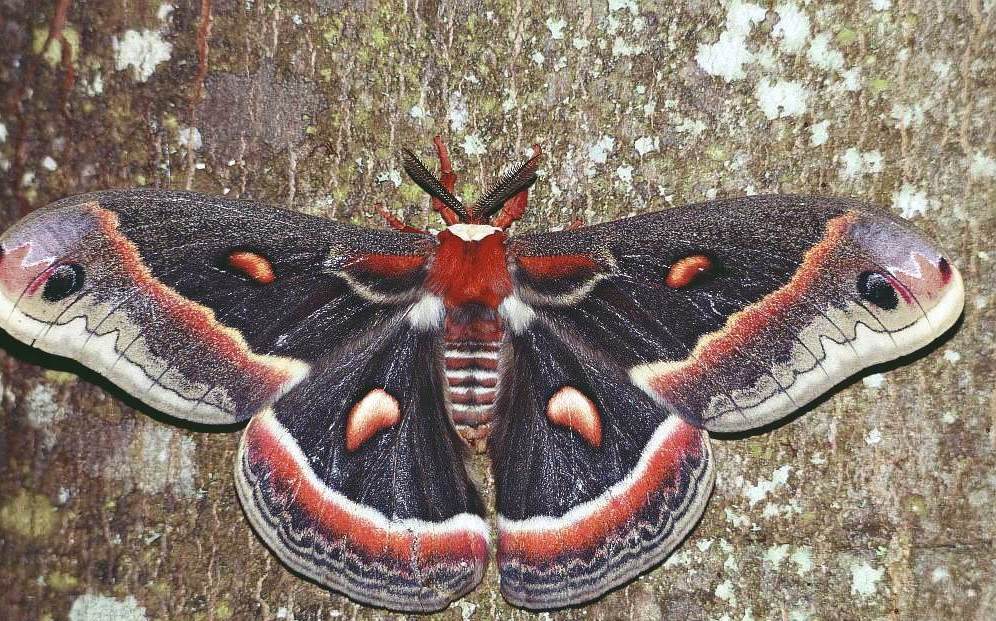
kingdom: Animalia
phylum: Arthropoda
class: Insecta
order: Lepidoptera
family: Saturniidae
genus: Hyalophora
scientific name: Hyalophora cecropia
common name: Cecropia silkmoth
